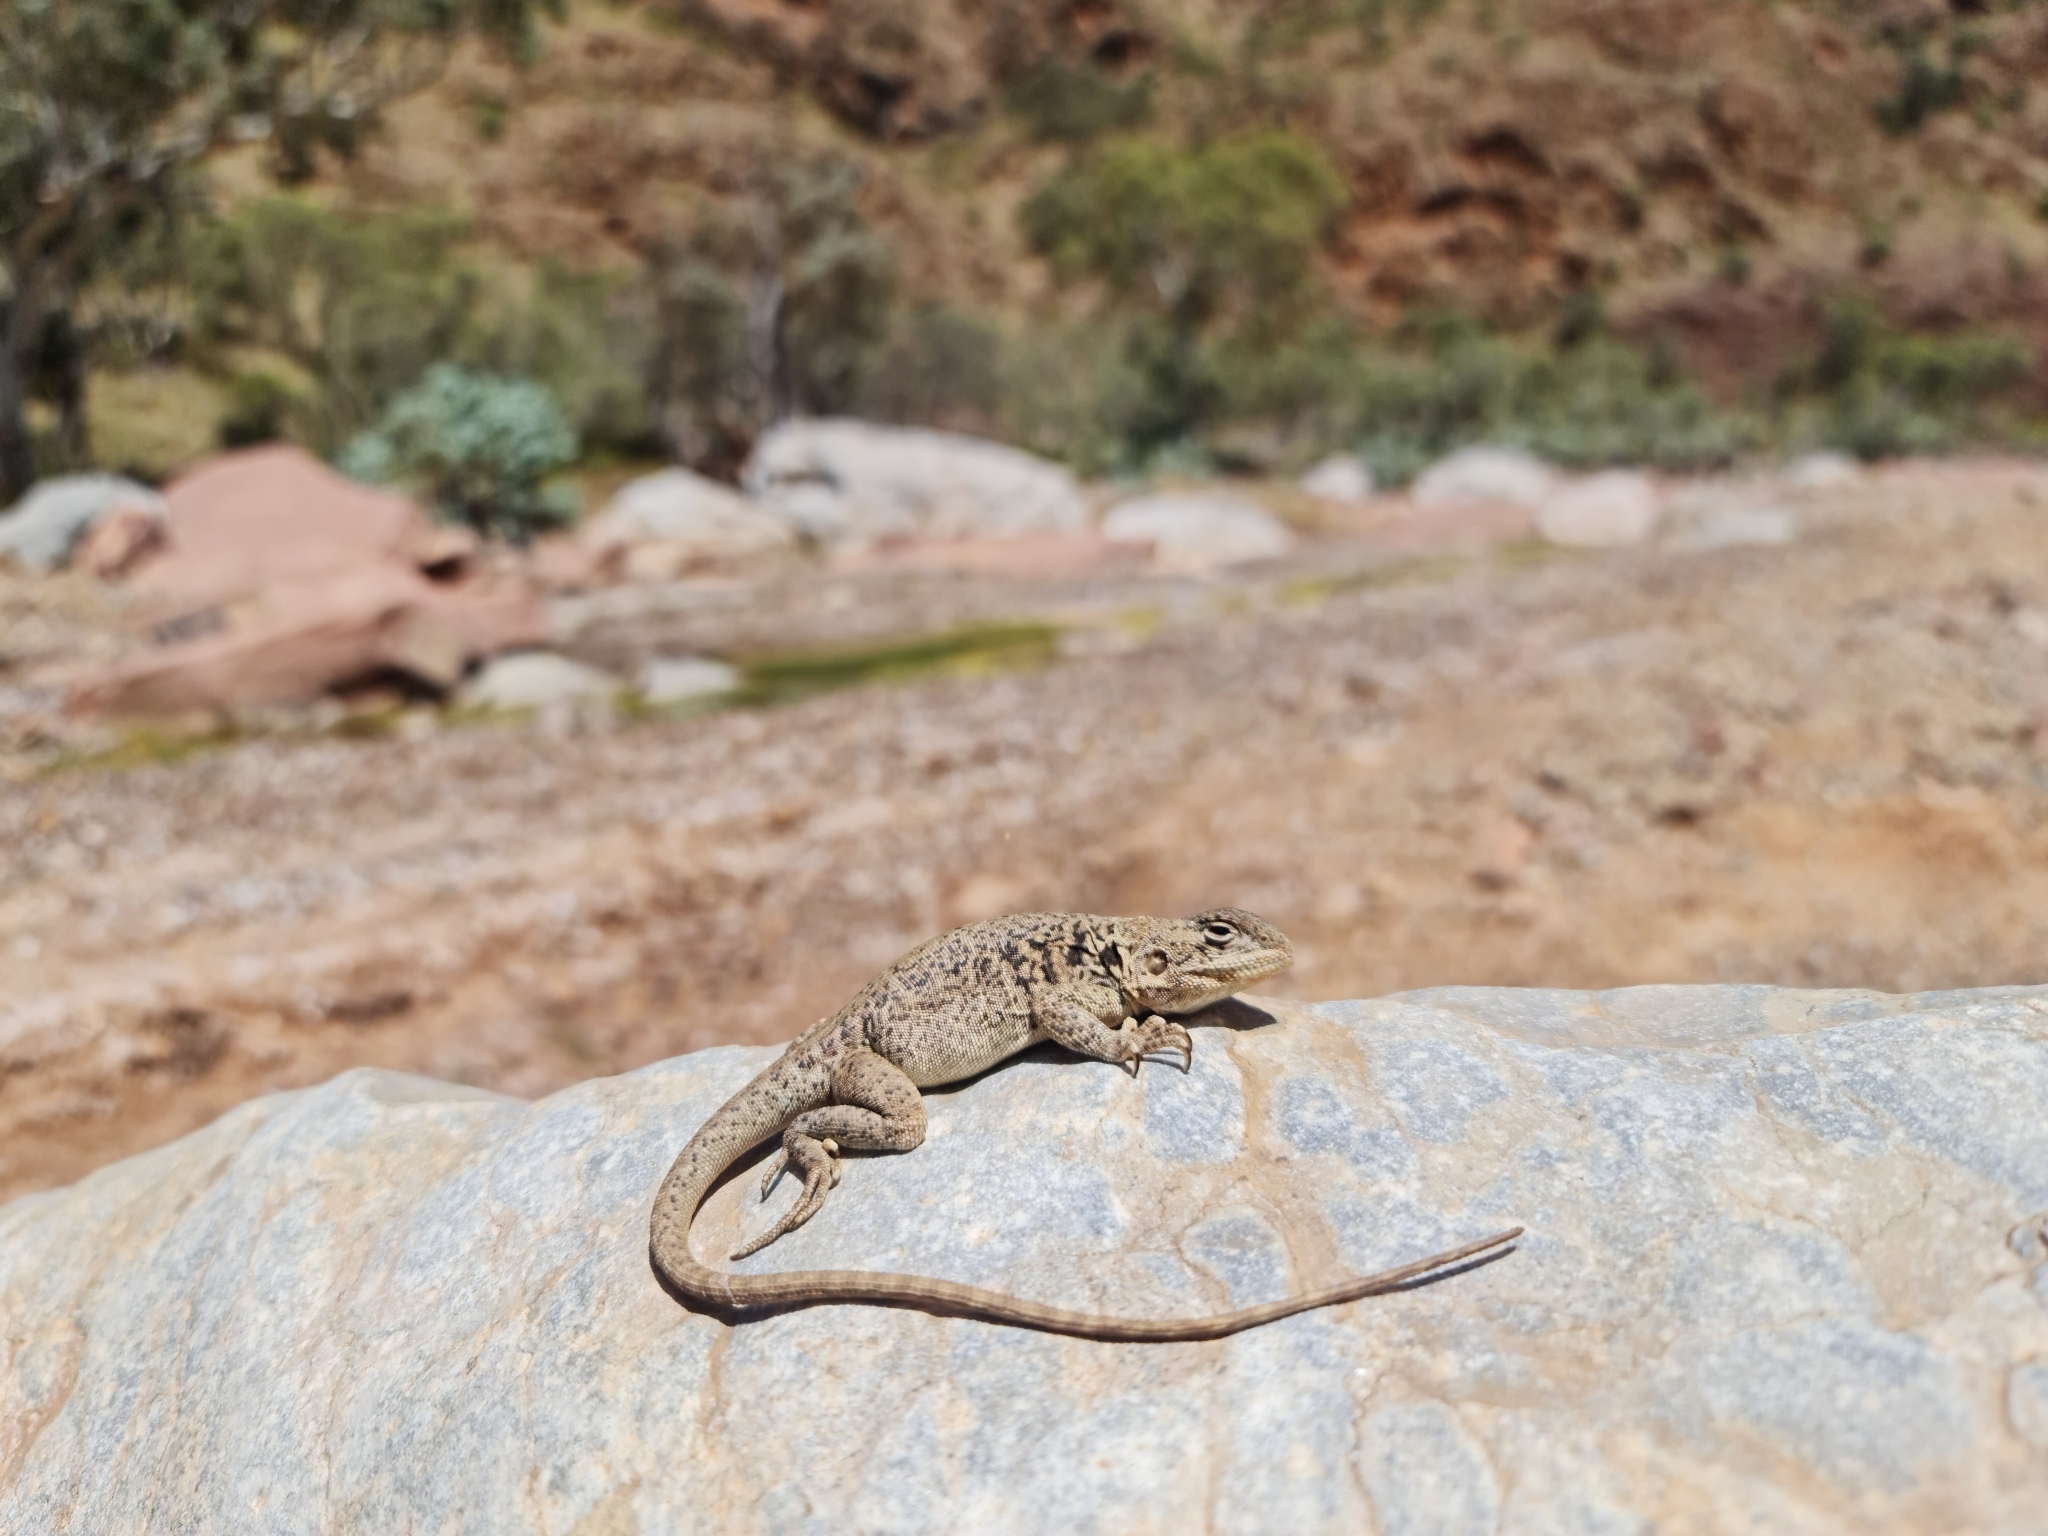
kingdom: Animalia
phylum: Chordata
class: Squamata
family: Agamidae
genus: Ctenophorus
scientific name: Ctenophorus vadnappa
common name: Red-barred crevice-dragon
